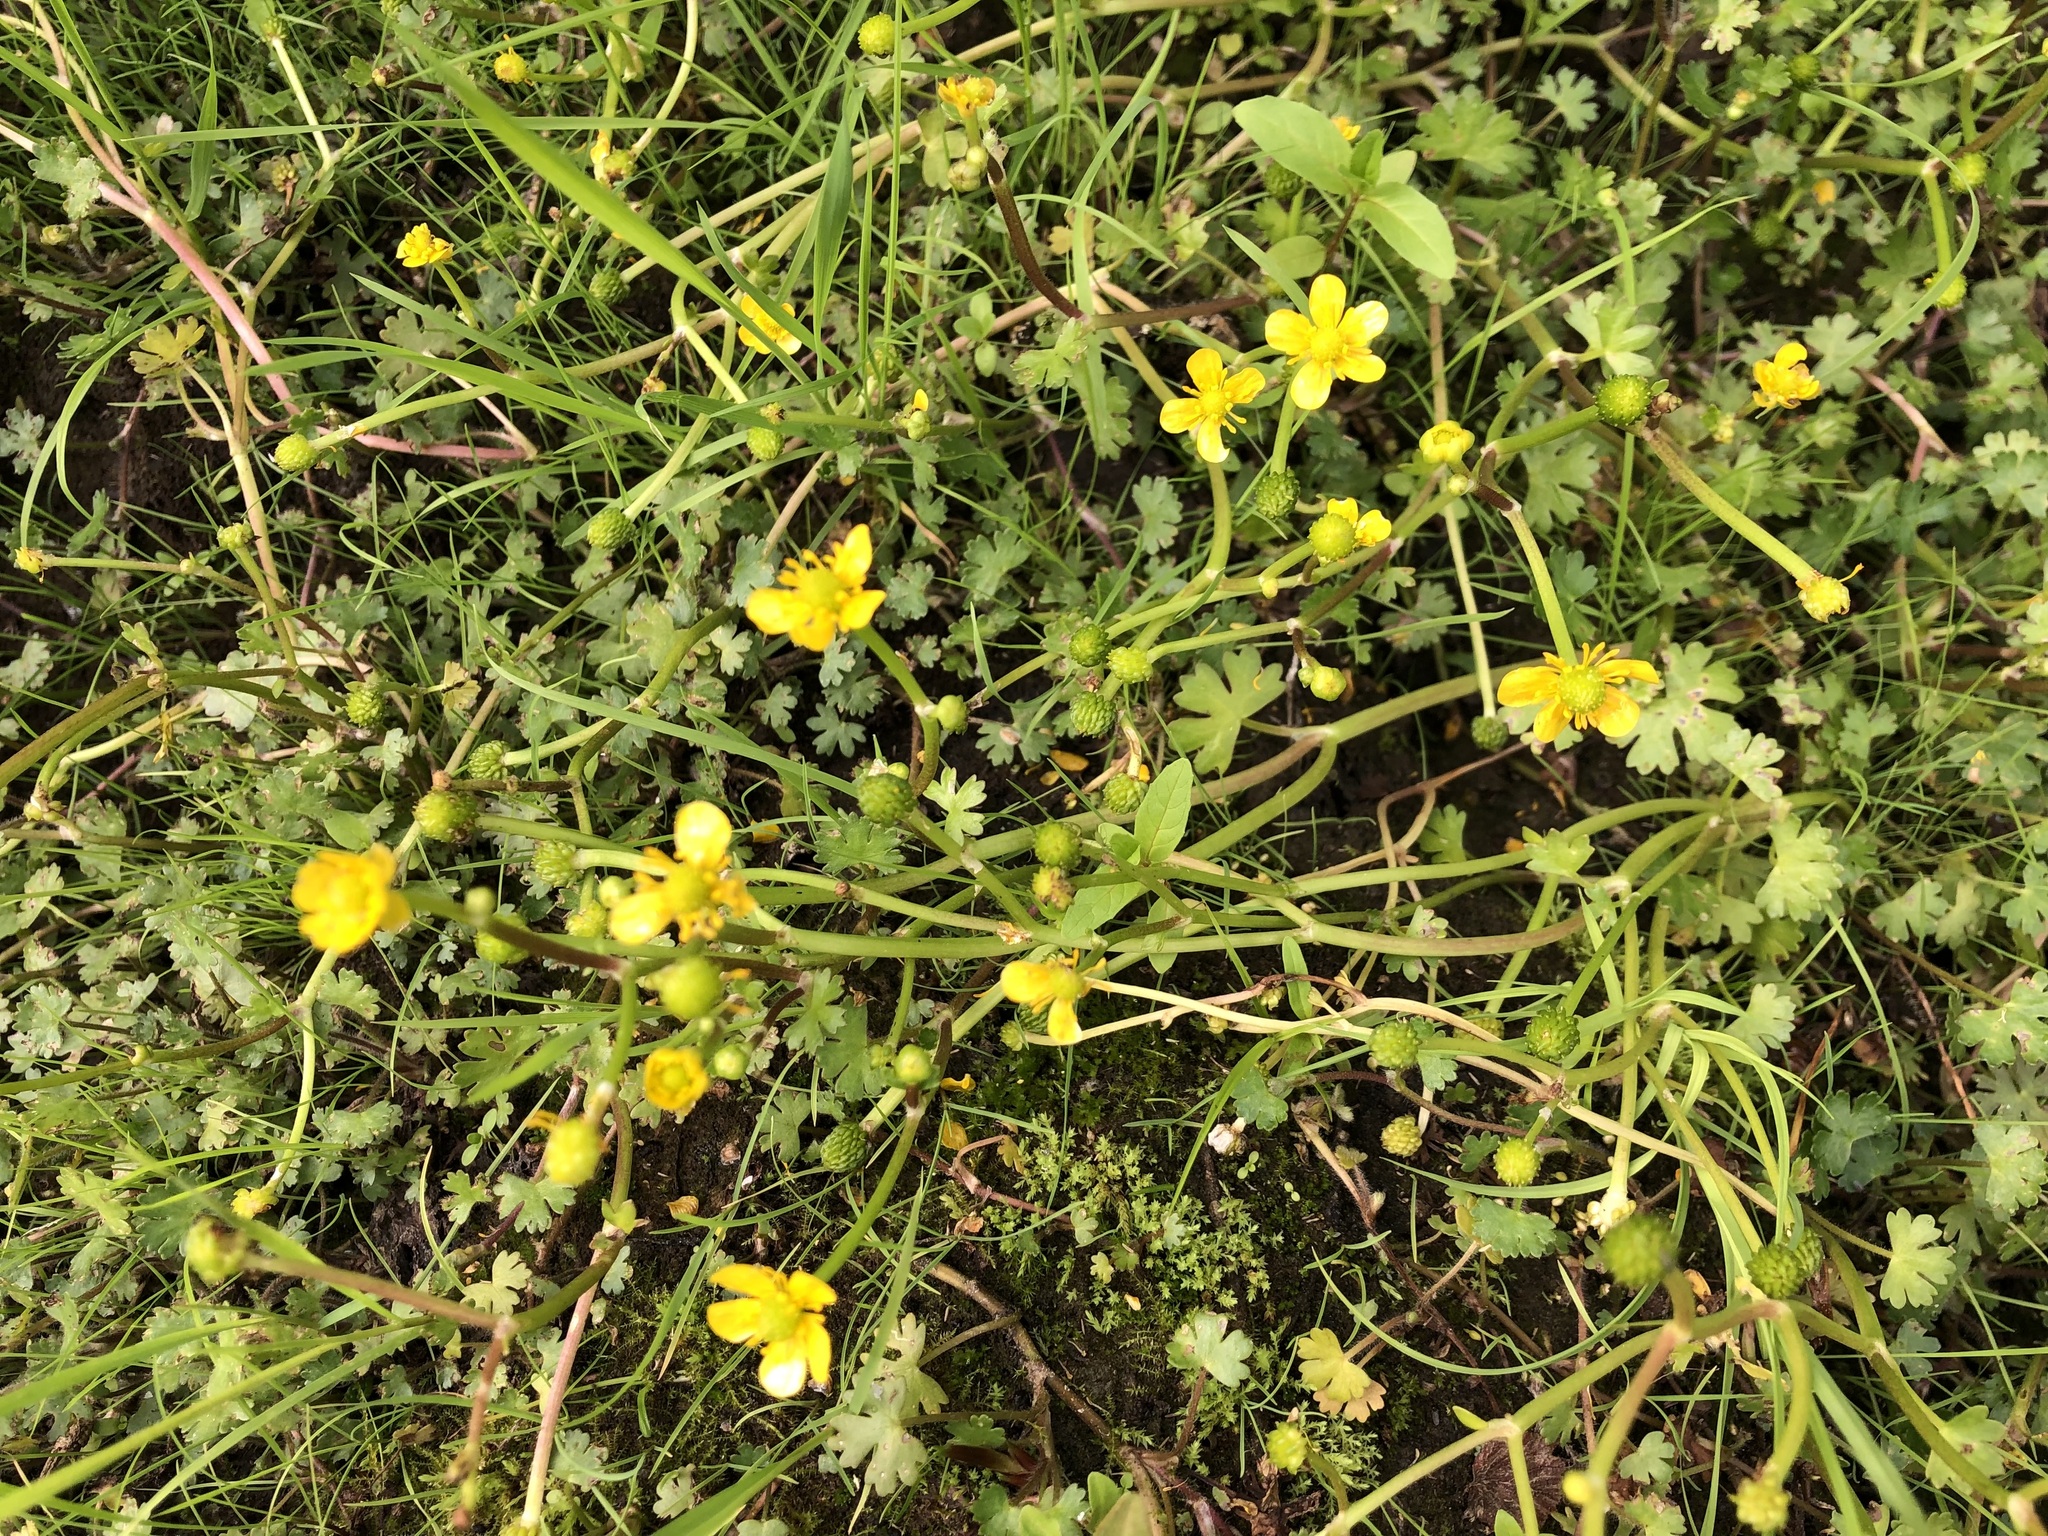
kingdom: Plantae
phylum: Tracheophyta
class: Magnoliopsida
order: Ranunculales
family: Ranunculaceae
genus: Ranunculus
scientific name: Ranunculus gmelinii
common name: Gmelin's buttercup
